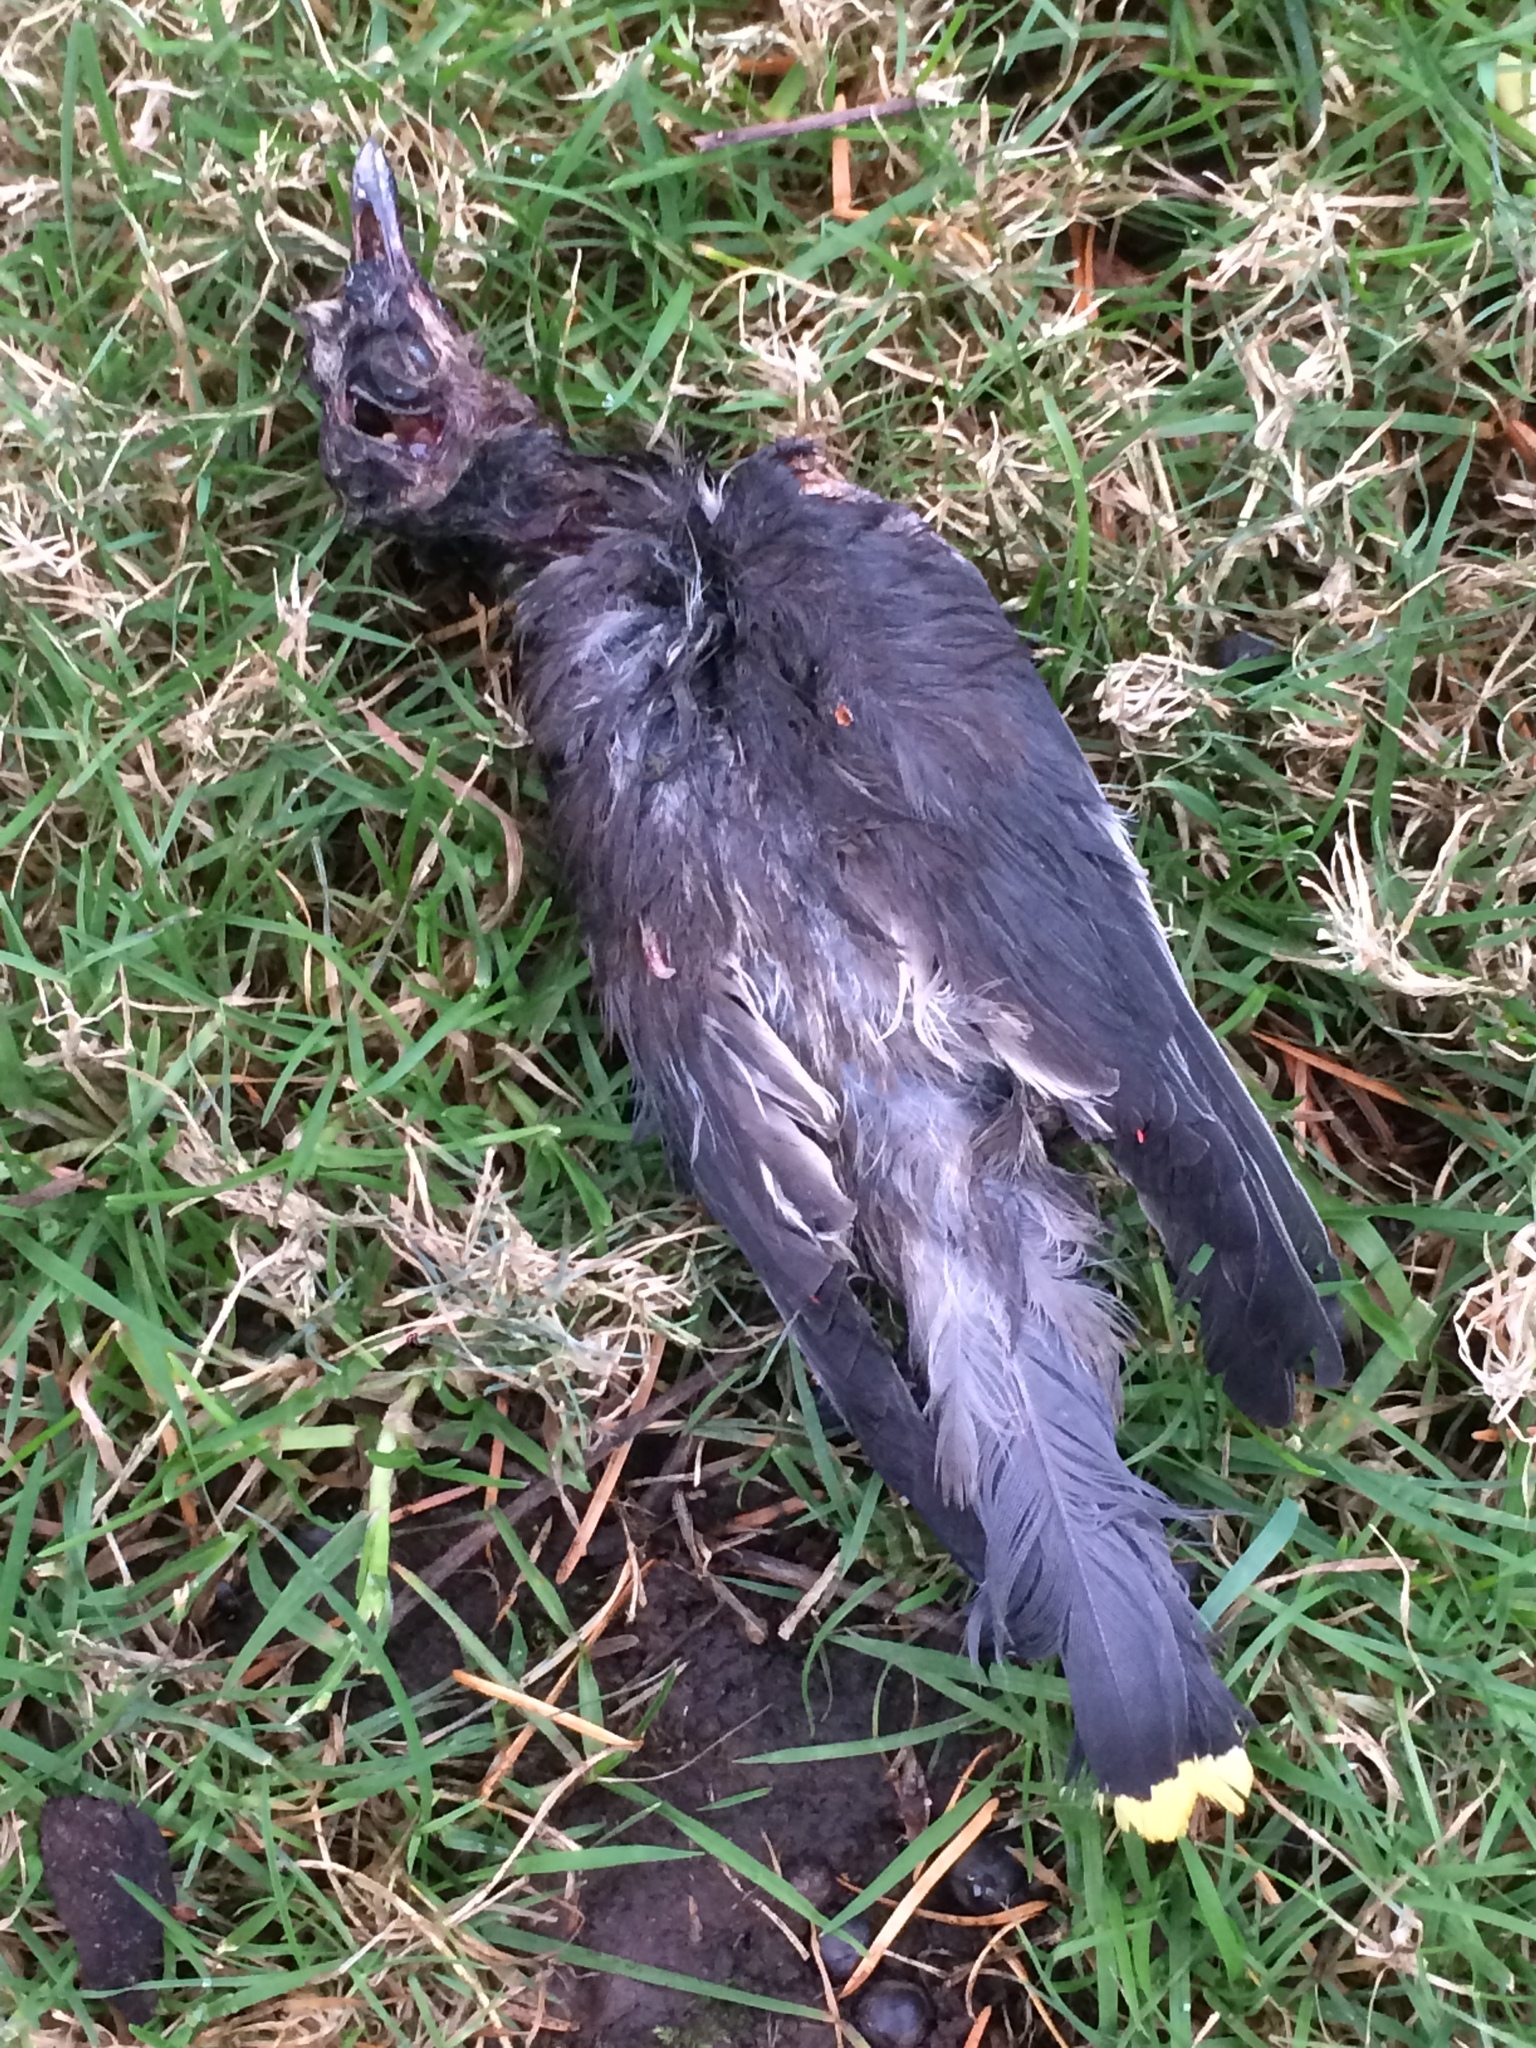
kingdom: Animalia
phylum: Chordata
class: Aves
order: Passeriformes
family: Bombycillidae
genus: Bombycilla
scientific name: Bombycilla cedrorum
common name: Cedar waxwing
